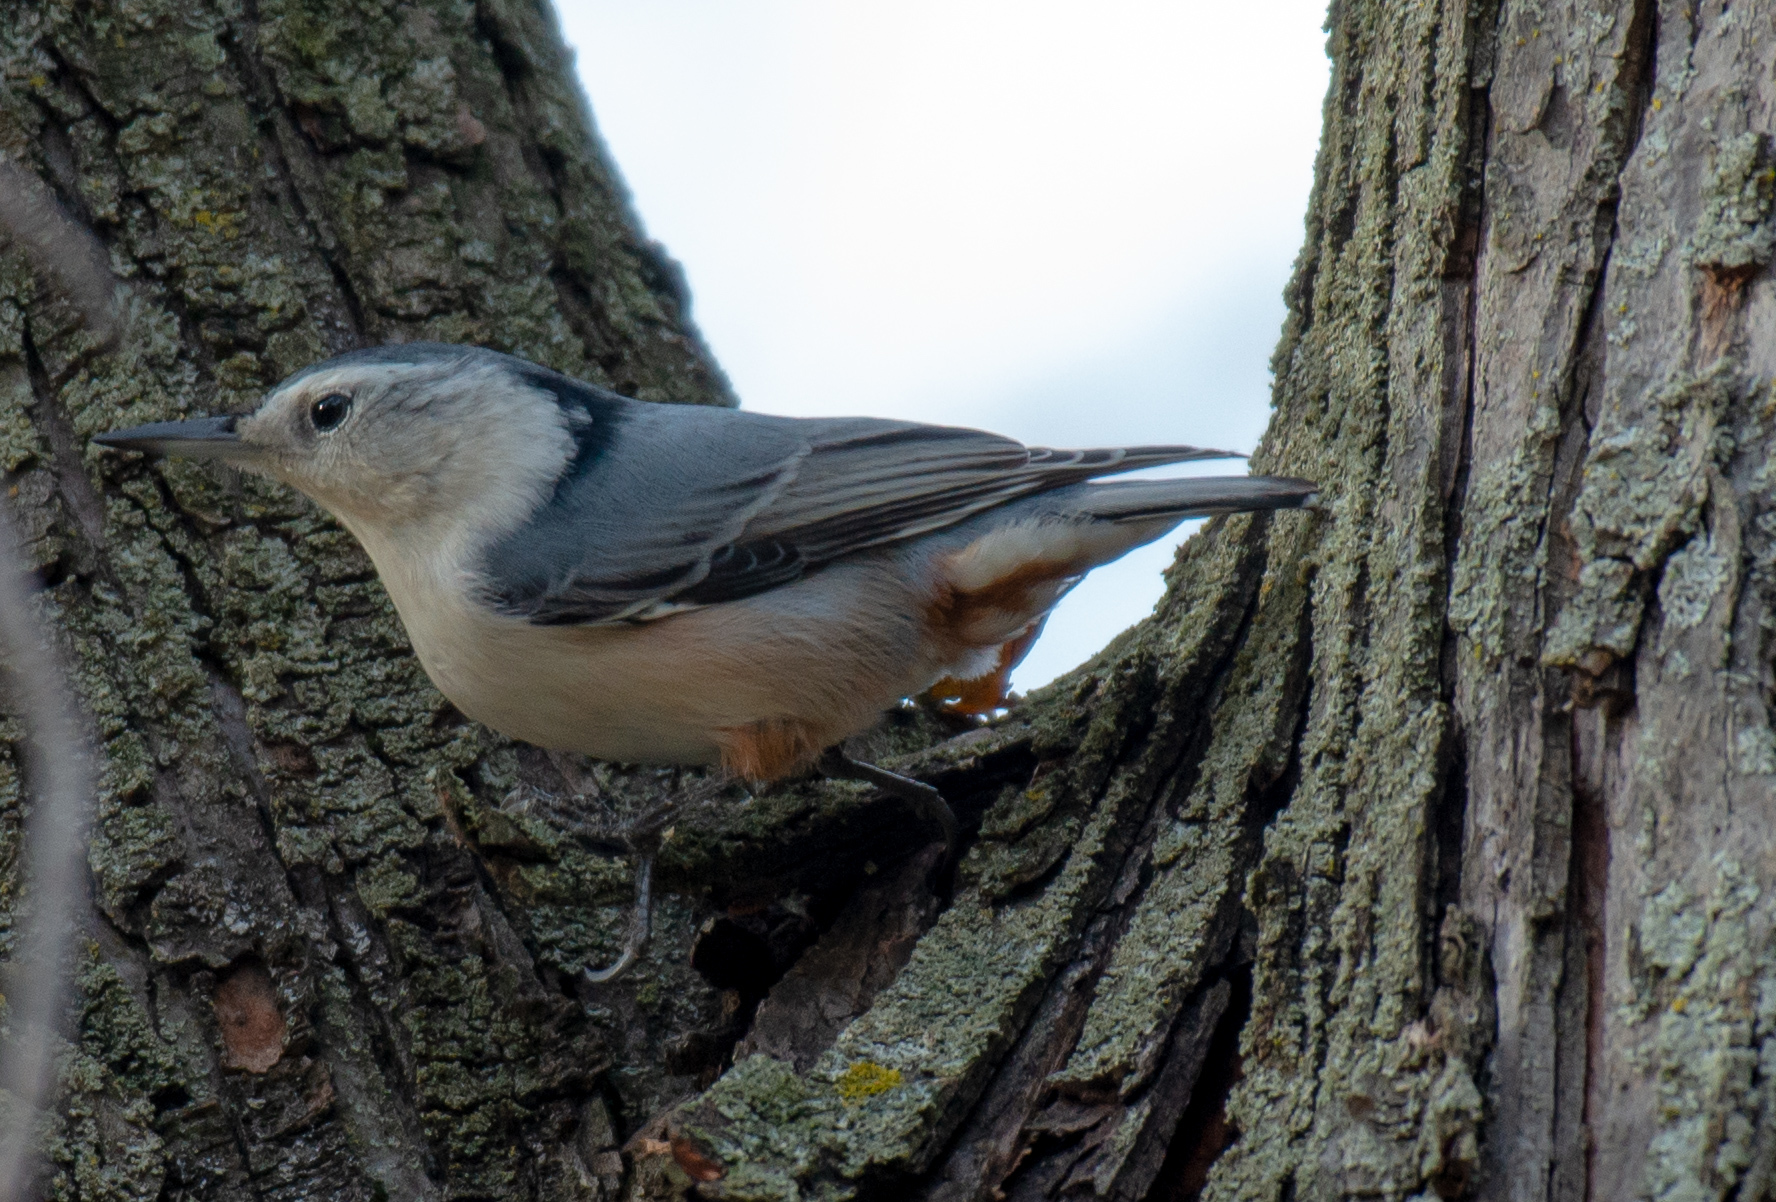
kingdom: Animalia
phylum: Chordata
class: Aves
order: Passeriformes
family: Sittidae
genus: Sitta
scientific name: Sitta carolinensis
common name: White-breasted nuthatch
